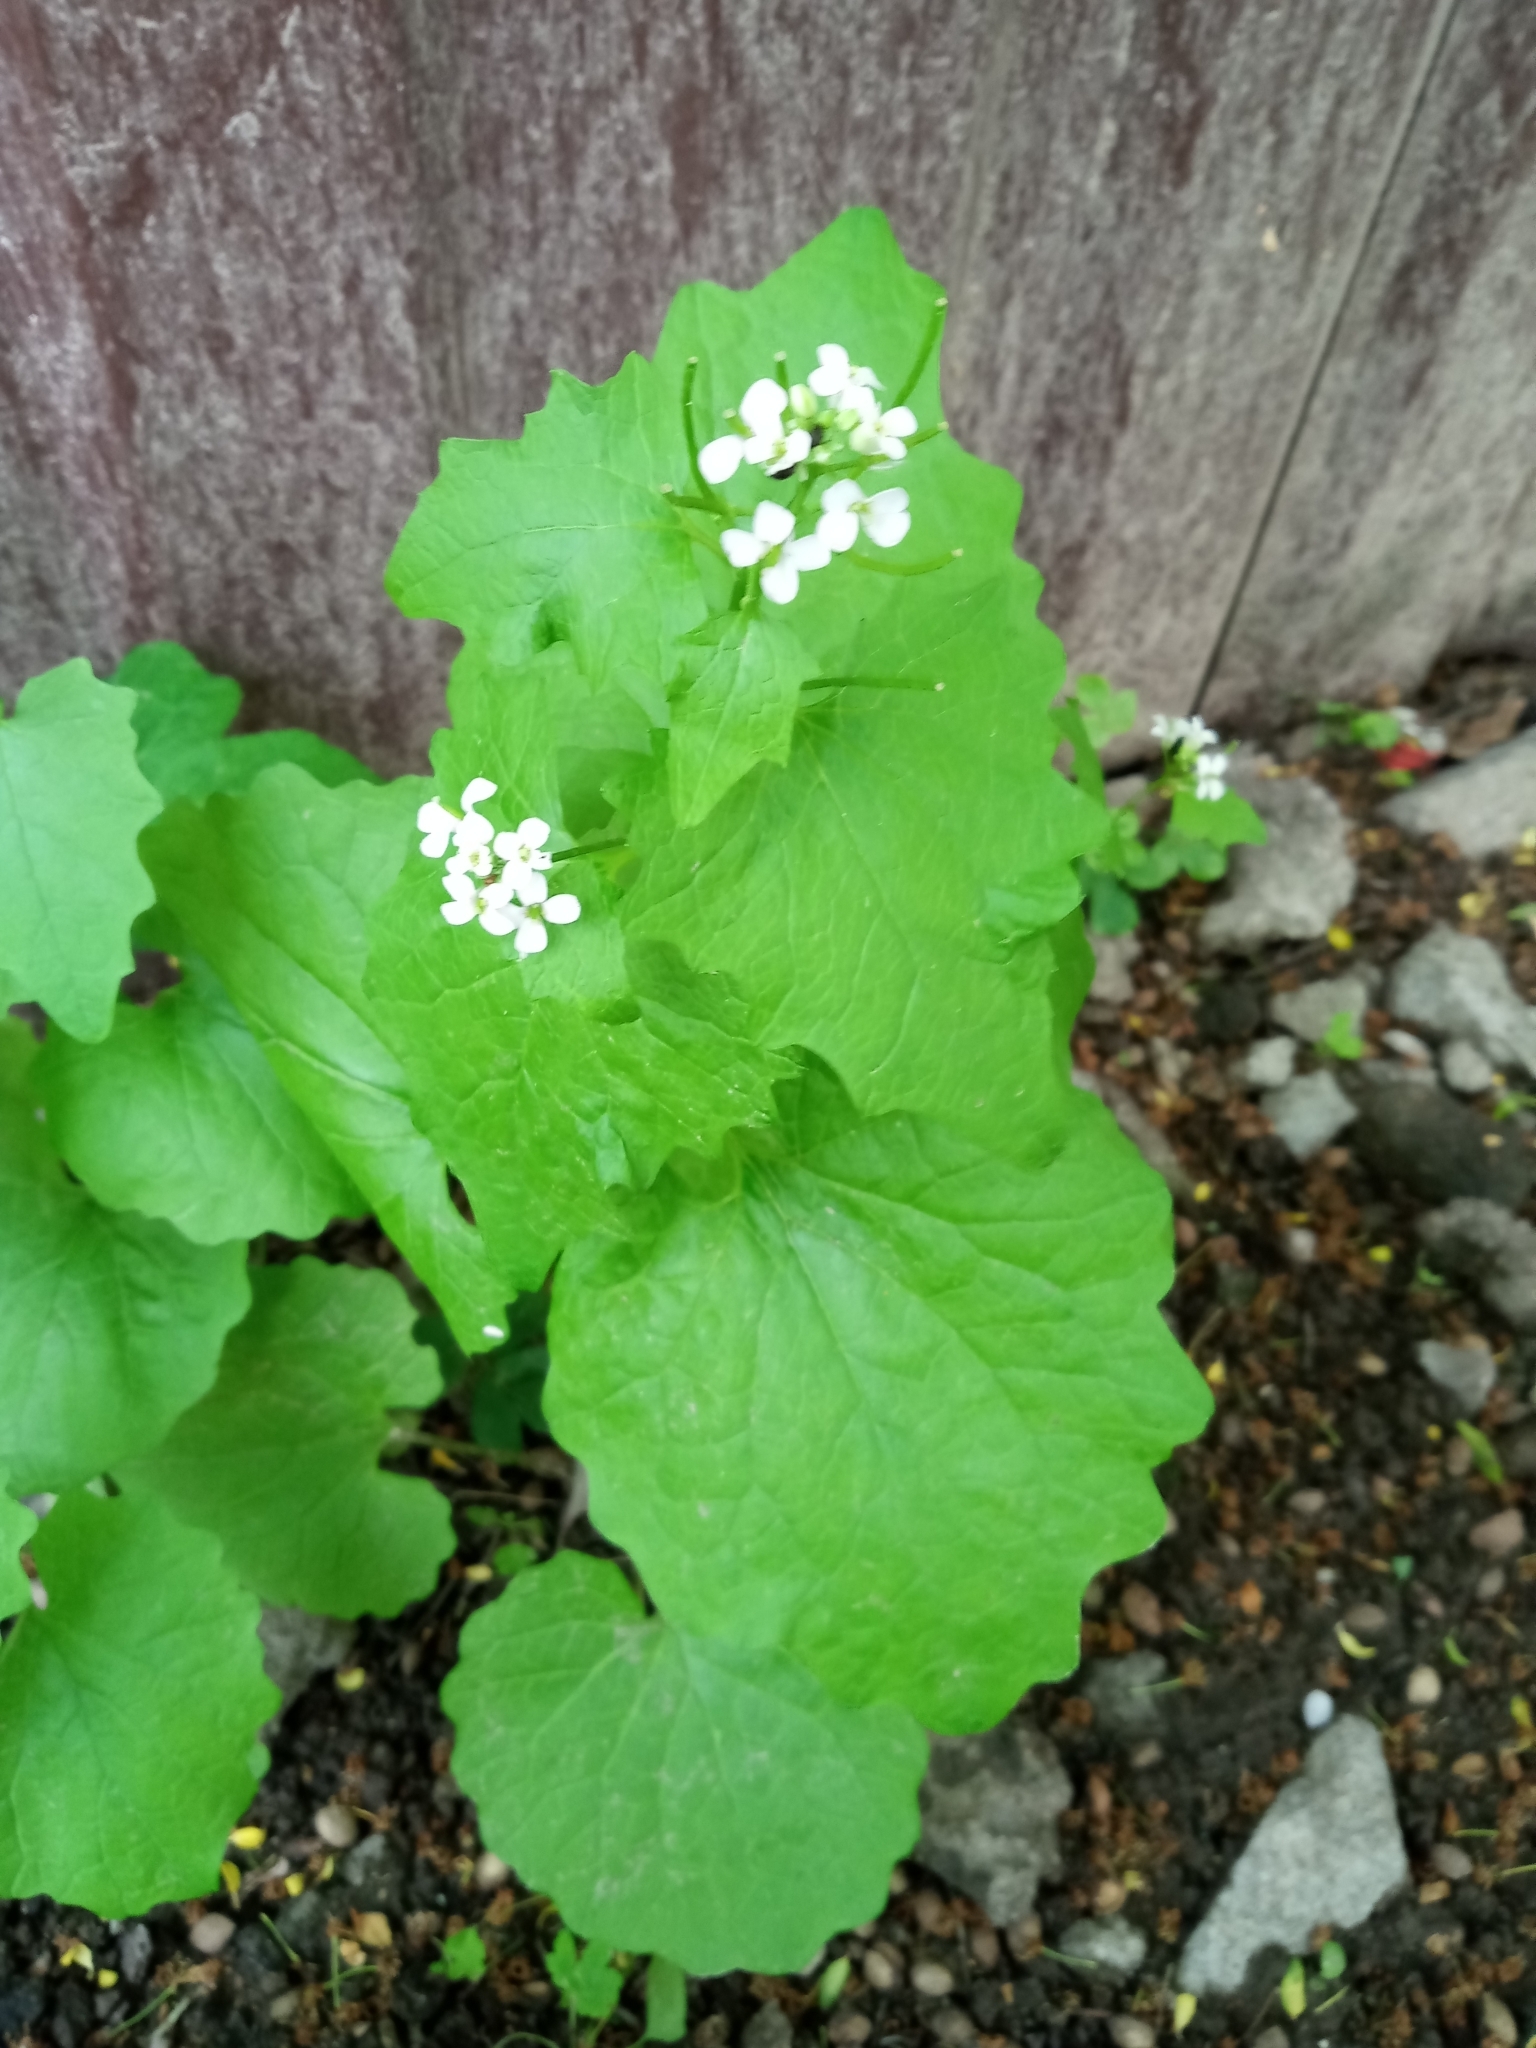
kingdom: Plantae
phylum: Tracheophyta
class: Magnoliopsida
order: Brassicales
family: Brassicaceae
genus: Alliaria
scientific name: Alliaria petiolata
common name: Garlic mustard
